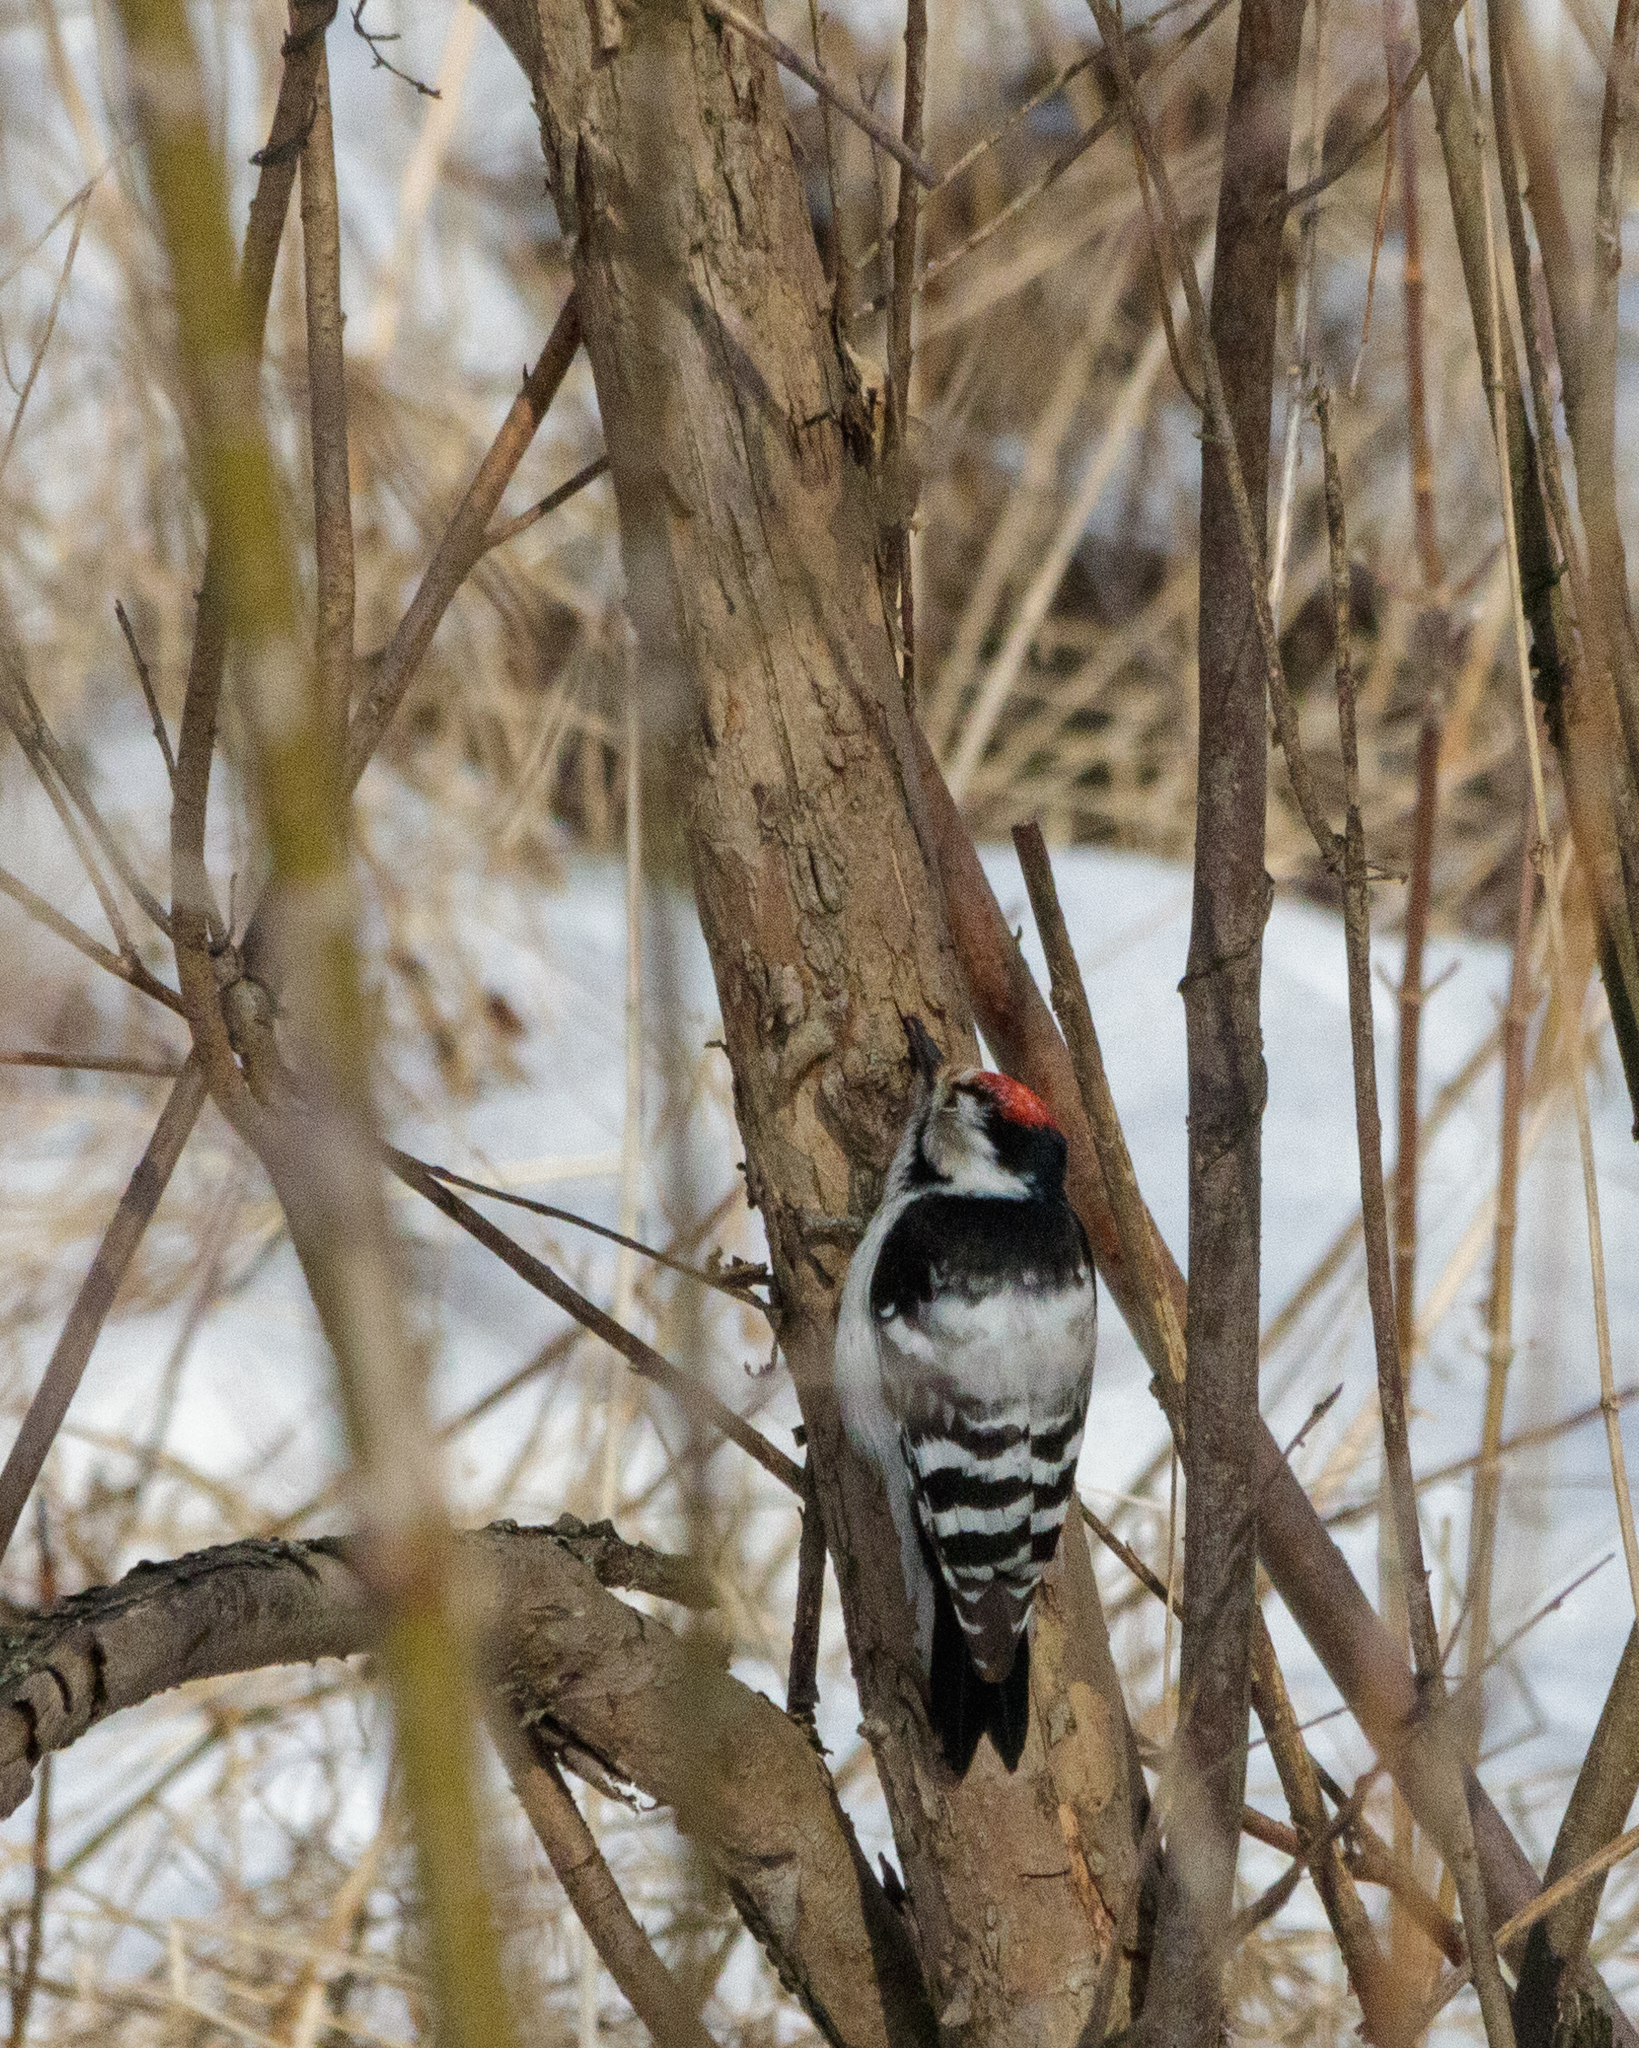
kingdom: Animalia
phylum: Chordata
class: Aves
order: Piciformes
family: Picidae
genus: Dryobates
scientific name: Dryobates minor
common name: Lesser spotted woodpecker
